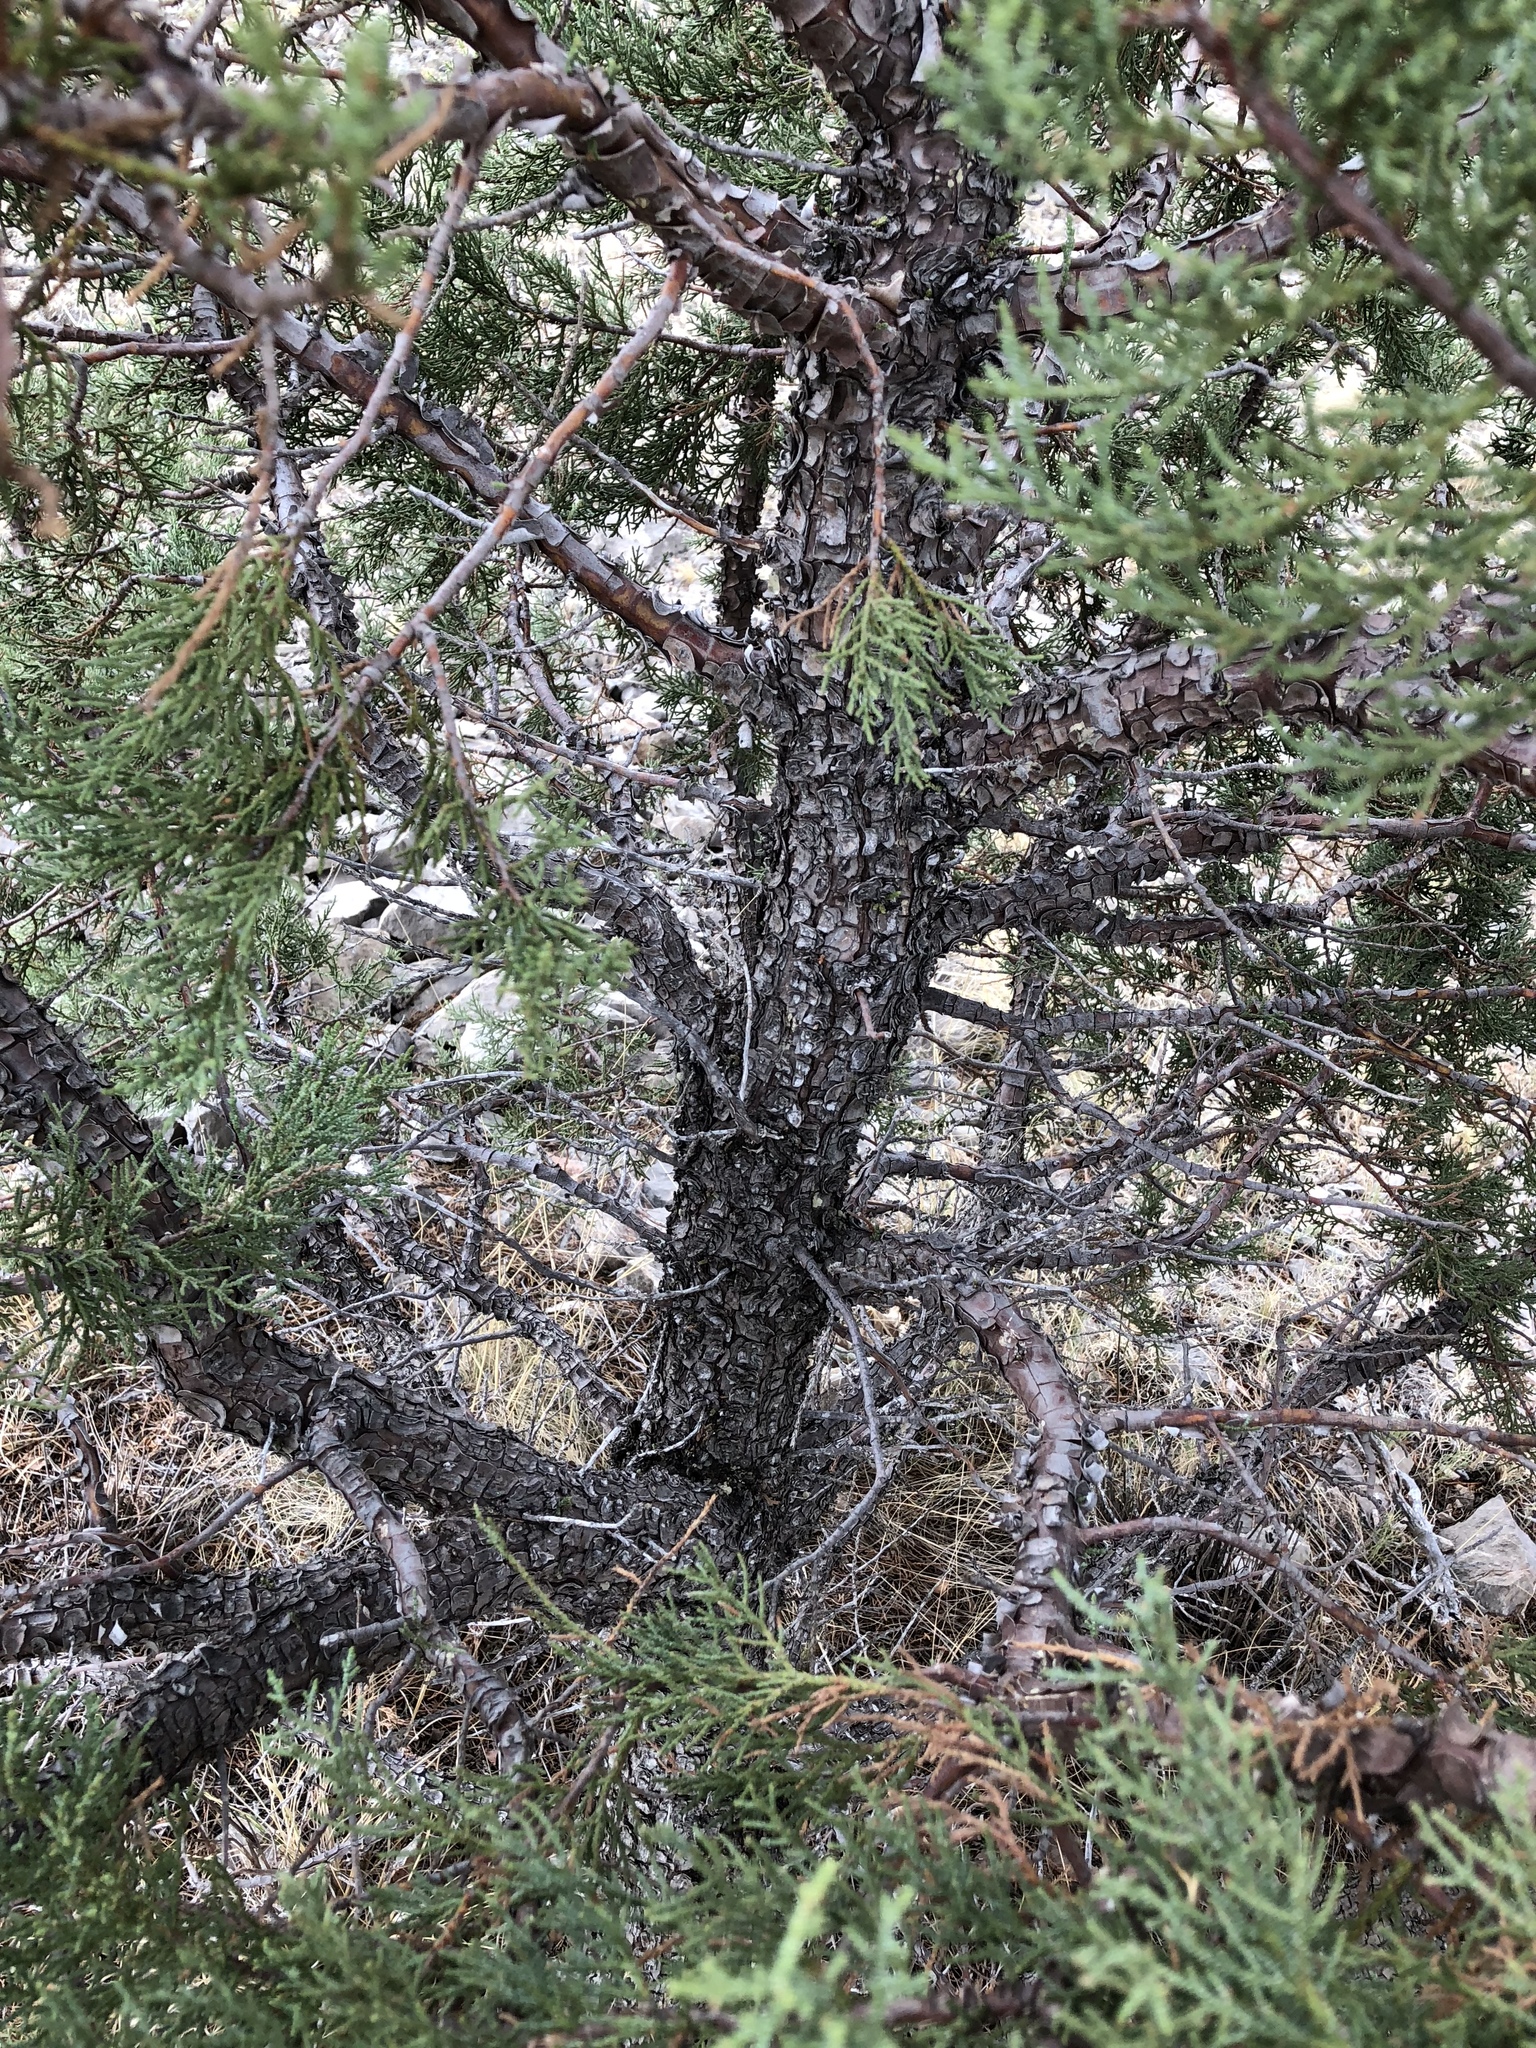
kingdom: Plantae
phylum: Tracheophyta
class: Pinopsida
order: Pinales
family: Cupressaceae
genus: Juniperus
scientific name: Juniperus deppeana
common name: Alligator juniper
